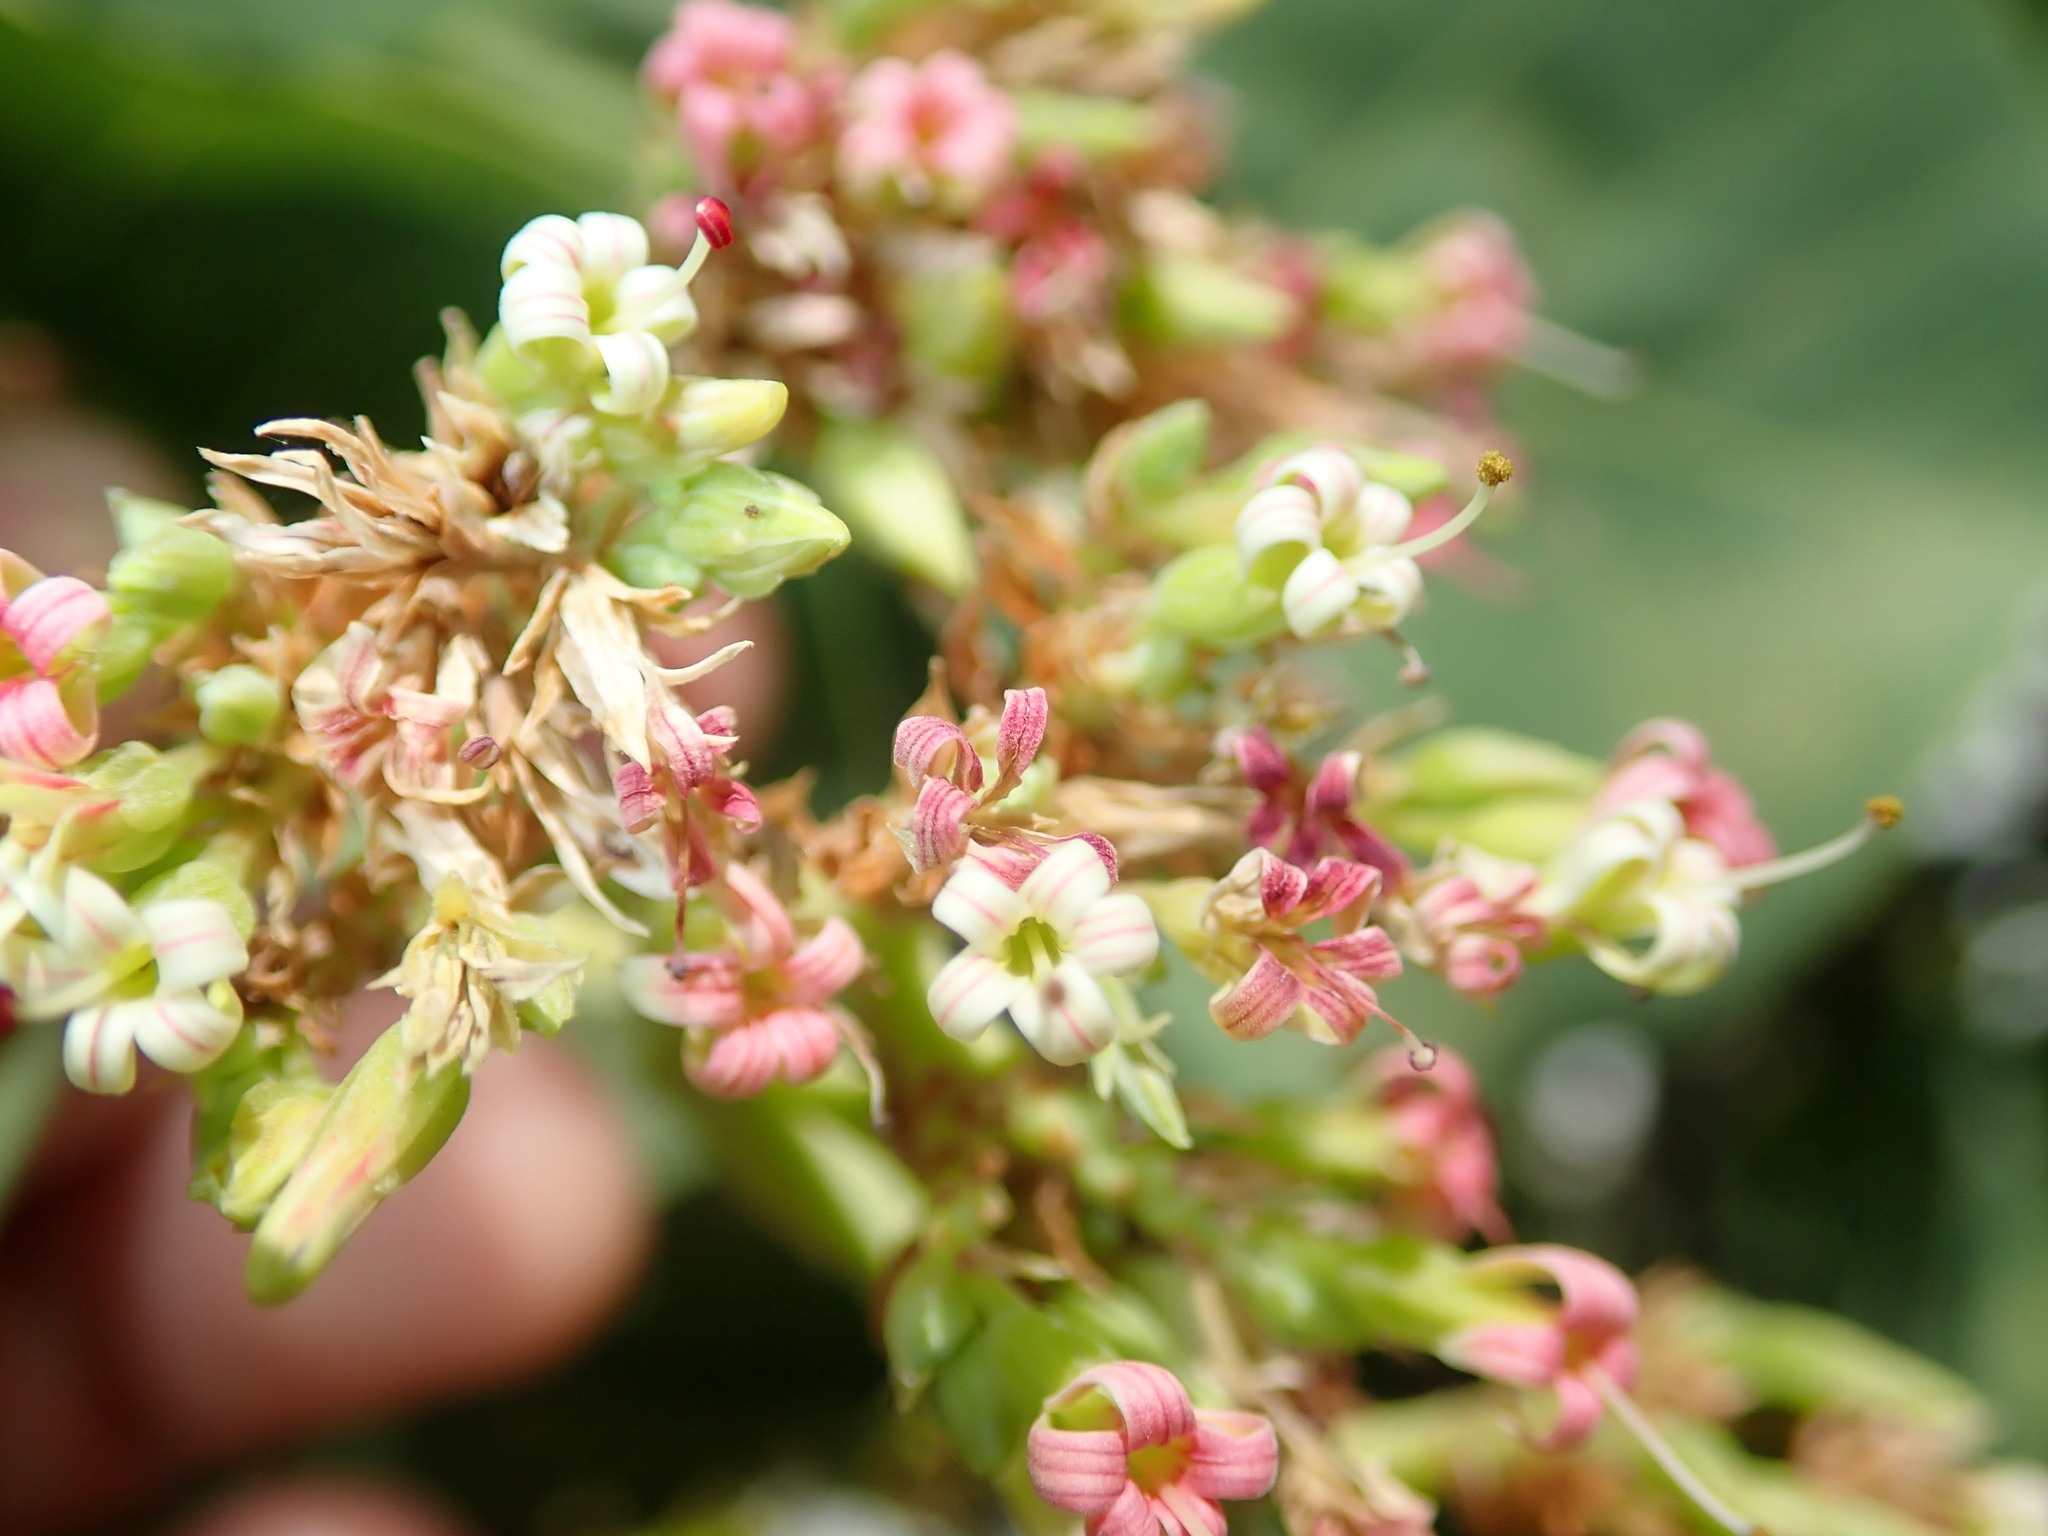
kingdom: Plantae
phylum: Tracheophyta
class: Magnoliopsida
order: Sapindales
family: Anacardiaceae
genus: Anacardium
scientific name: Anacardium occidentale
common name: Cashew
